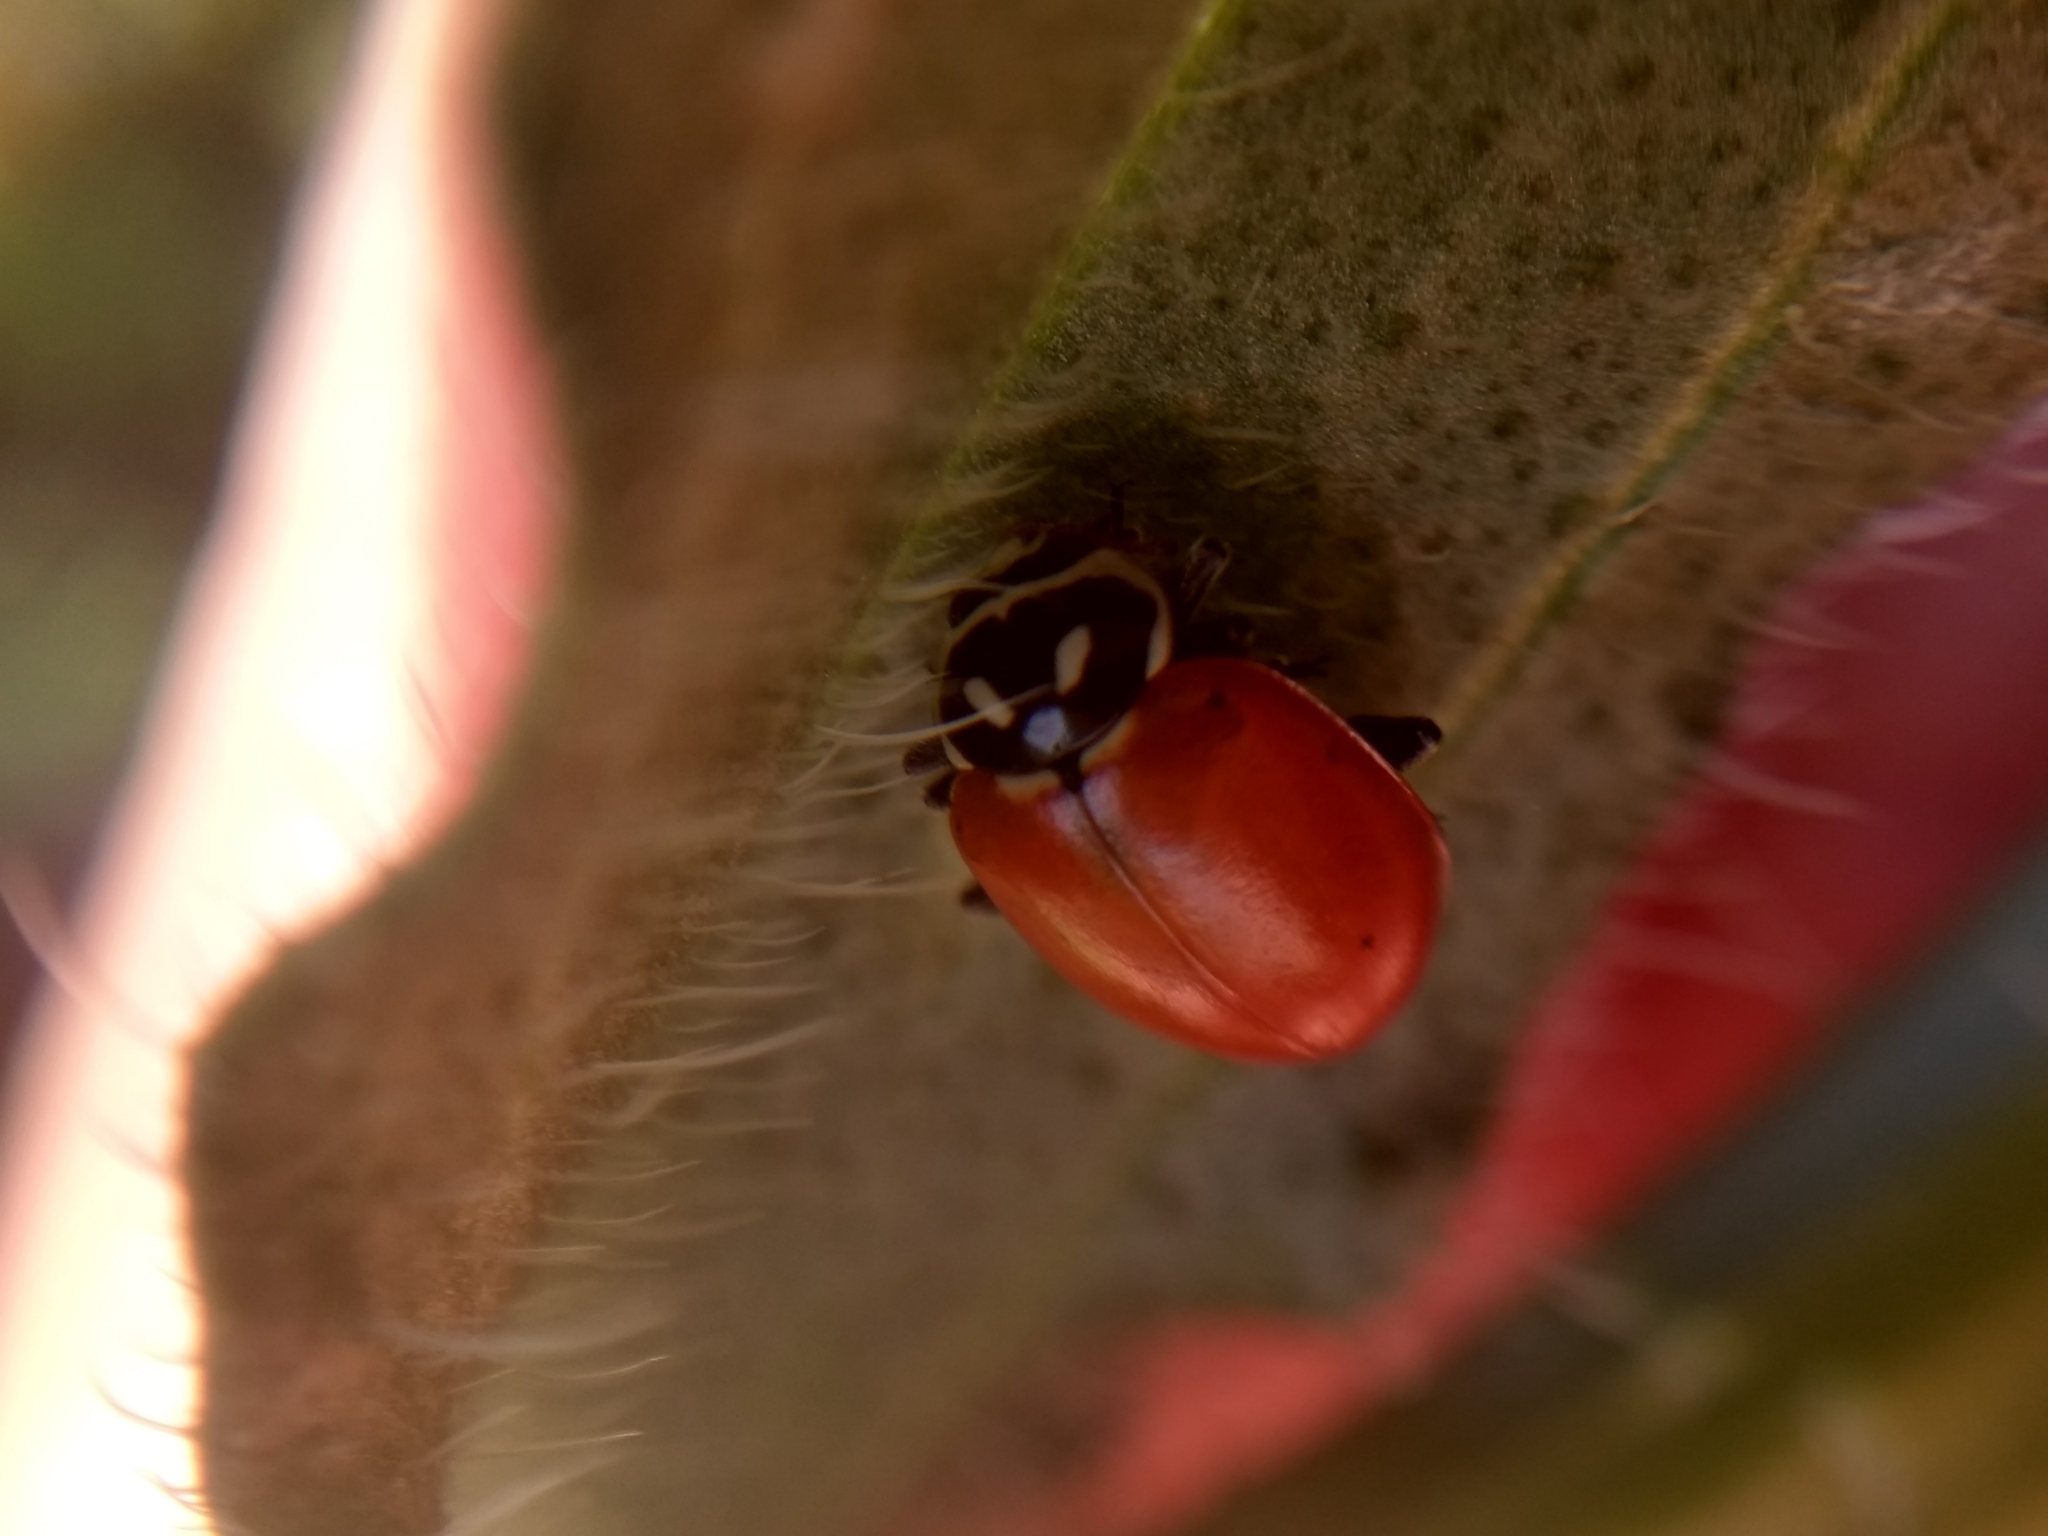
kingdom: Animalia
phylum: Arthropoda
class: Insecta
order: Coleoptera
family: Coccinellidae
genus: Hippodamia
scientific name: Hippodamia convergens
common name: Convergent lady beetle
